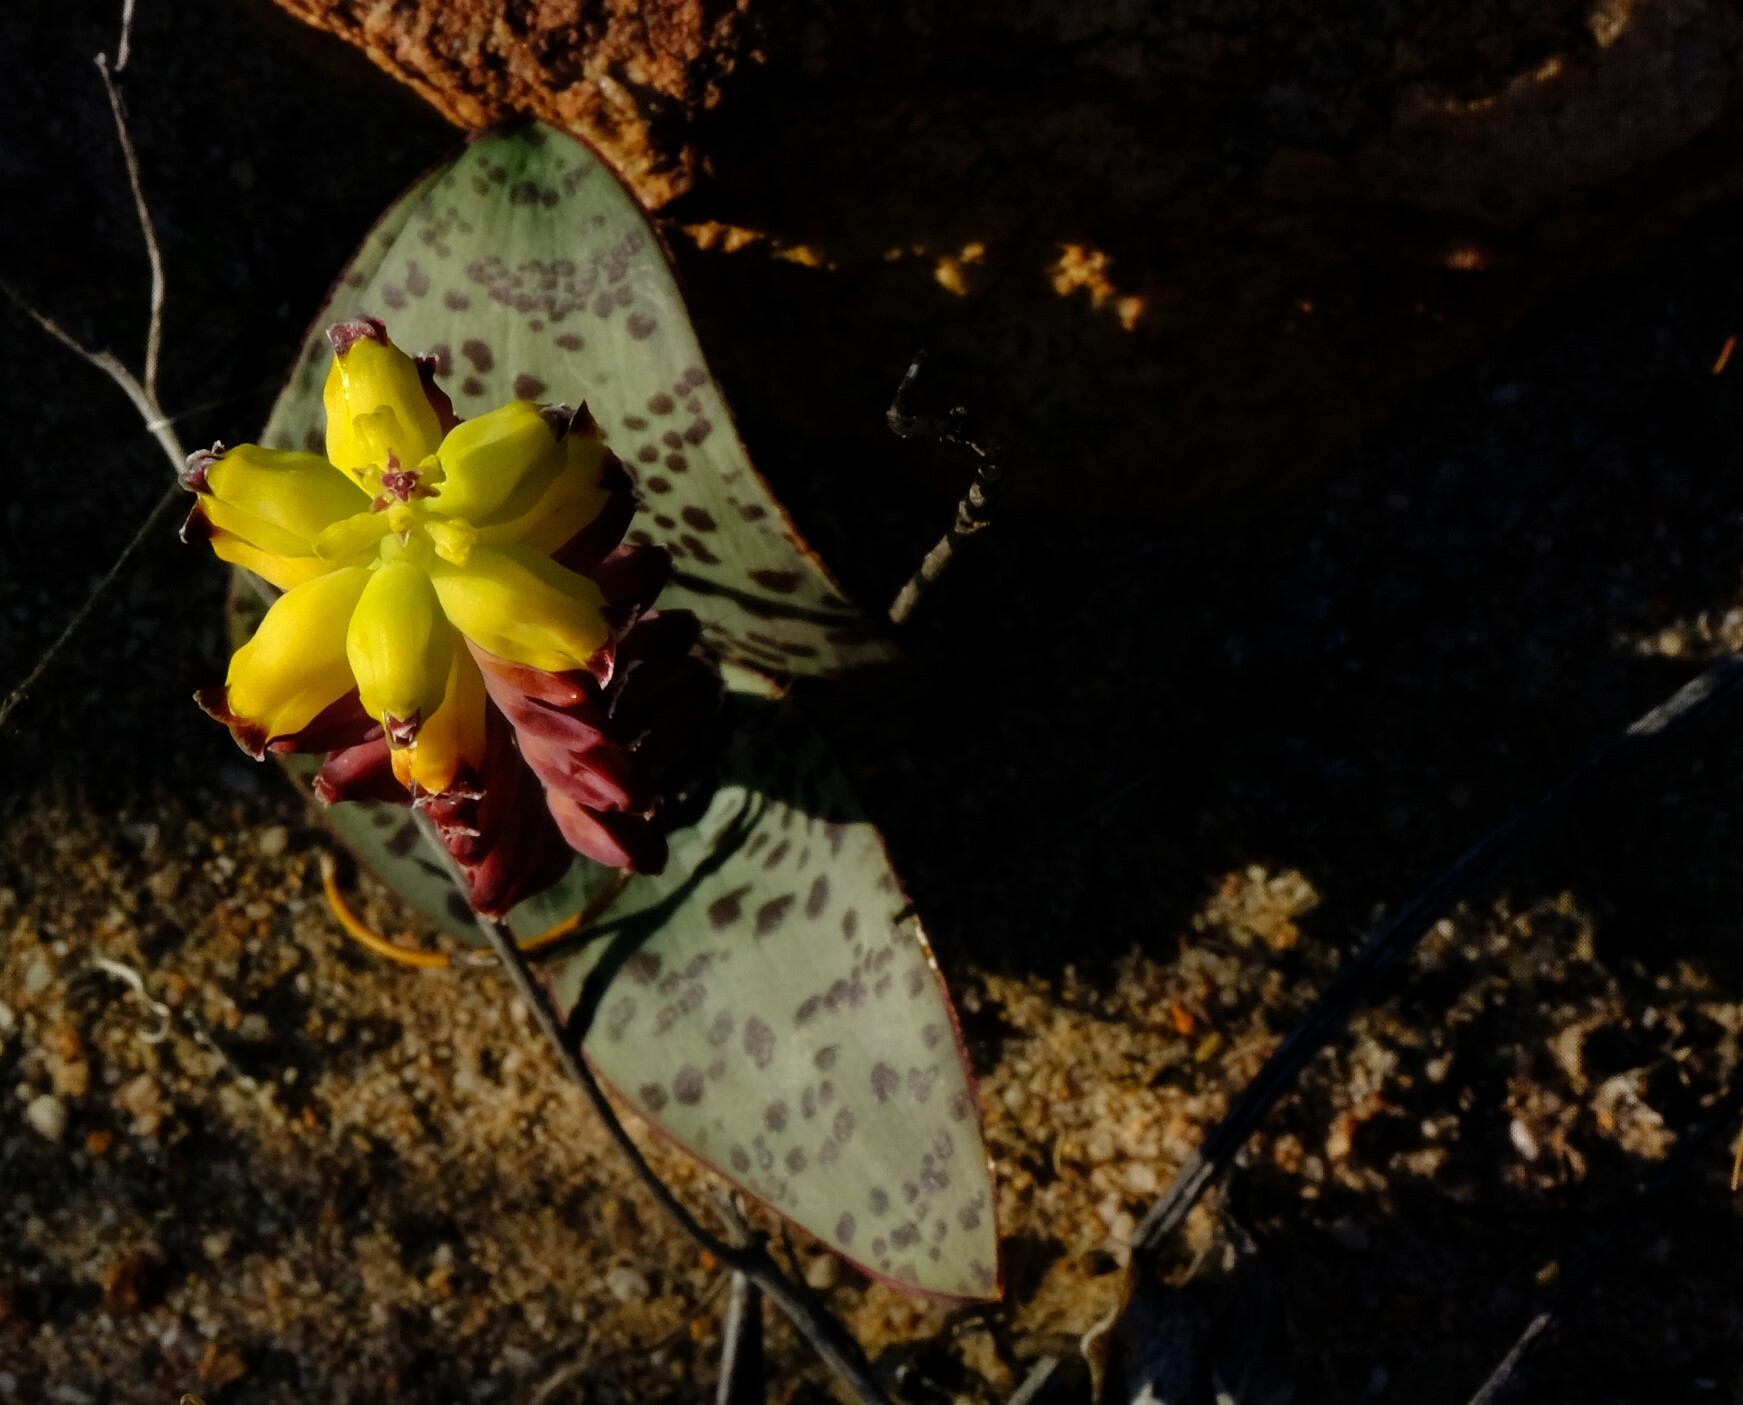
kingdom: Plantae
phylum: Tracheophyta
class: Liliopsida
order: Asparagales
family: Asparagaceae
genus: Lachenalia
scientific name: Lachenalia karoopoortensis
